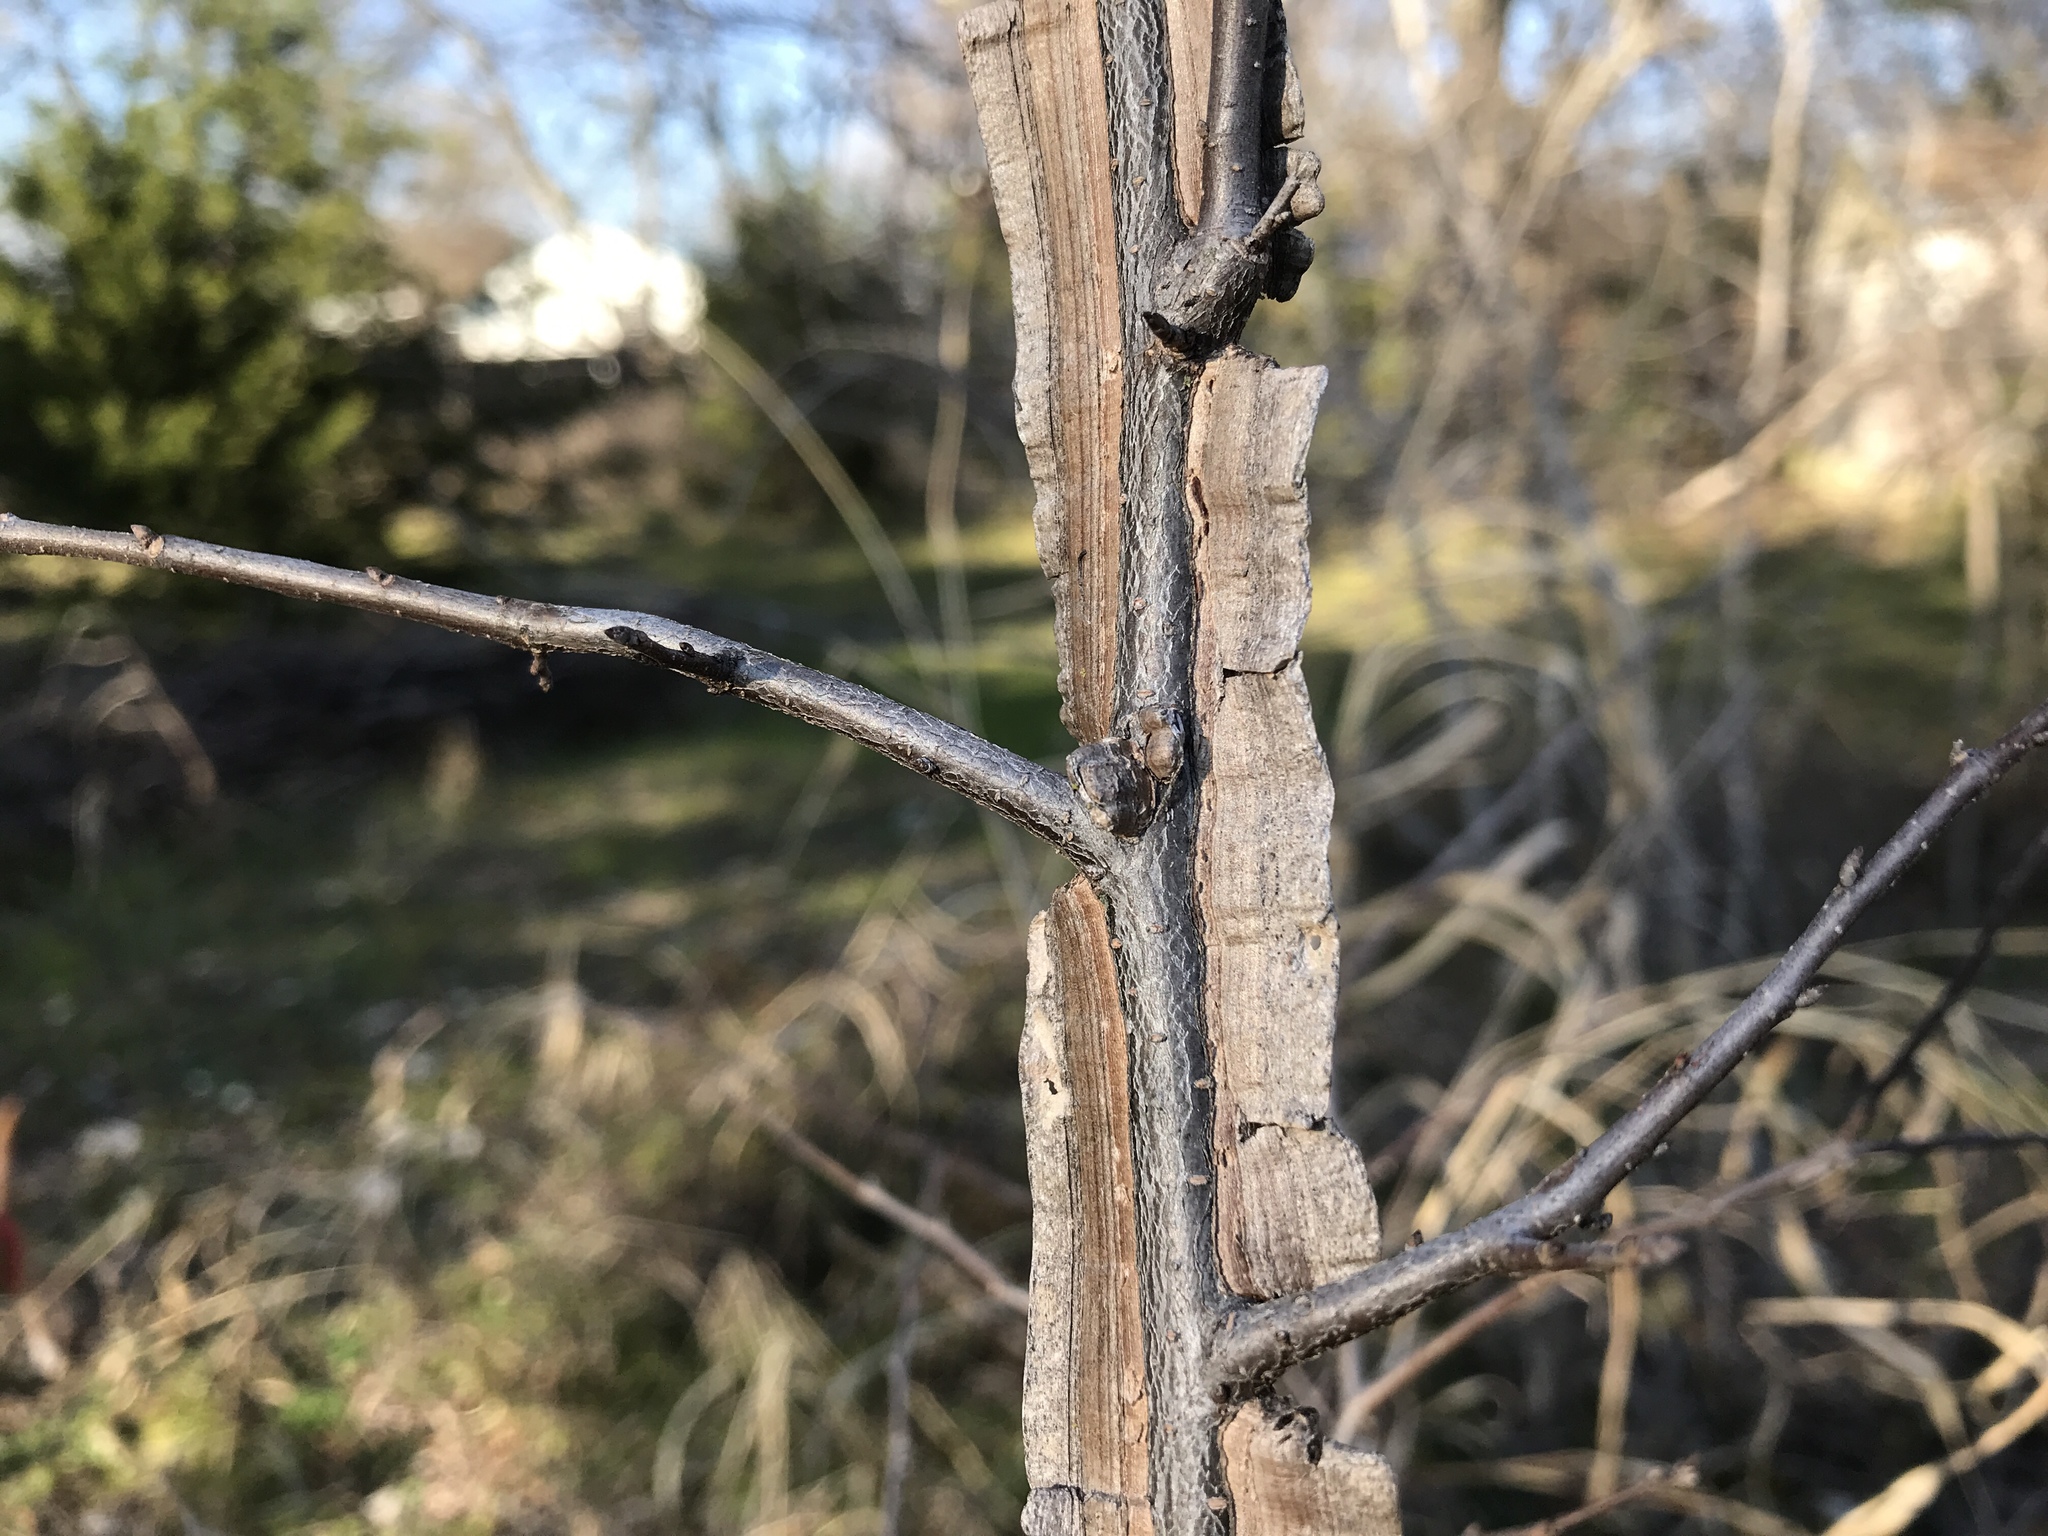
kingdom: Plantae
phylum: Tracheophyta
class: Magnoliopsida
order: Rosales
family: Ulmaceae
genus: Ulmus
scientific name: Ulmus crassifolia
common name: Basket elm
